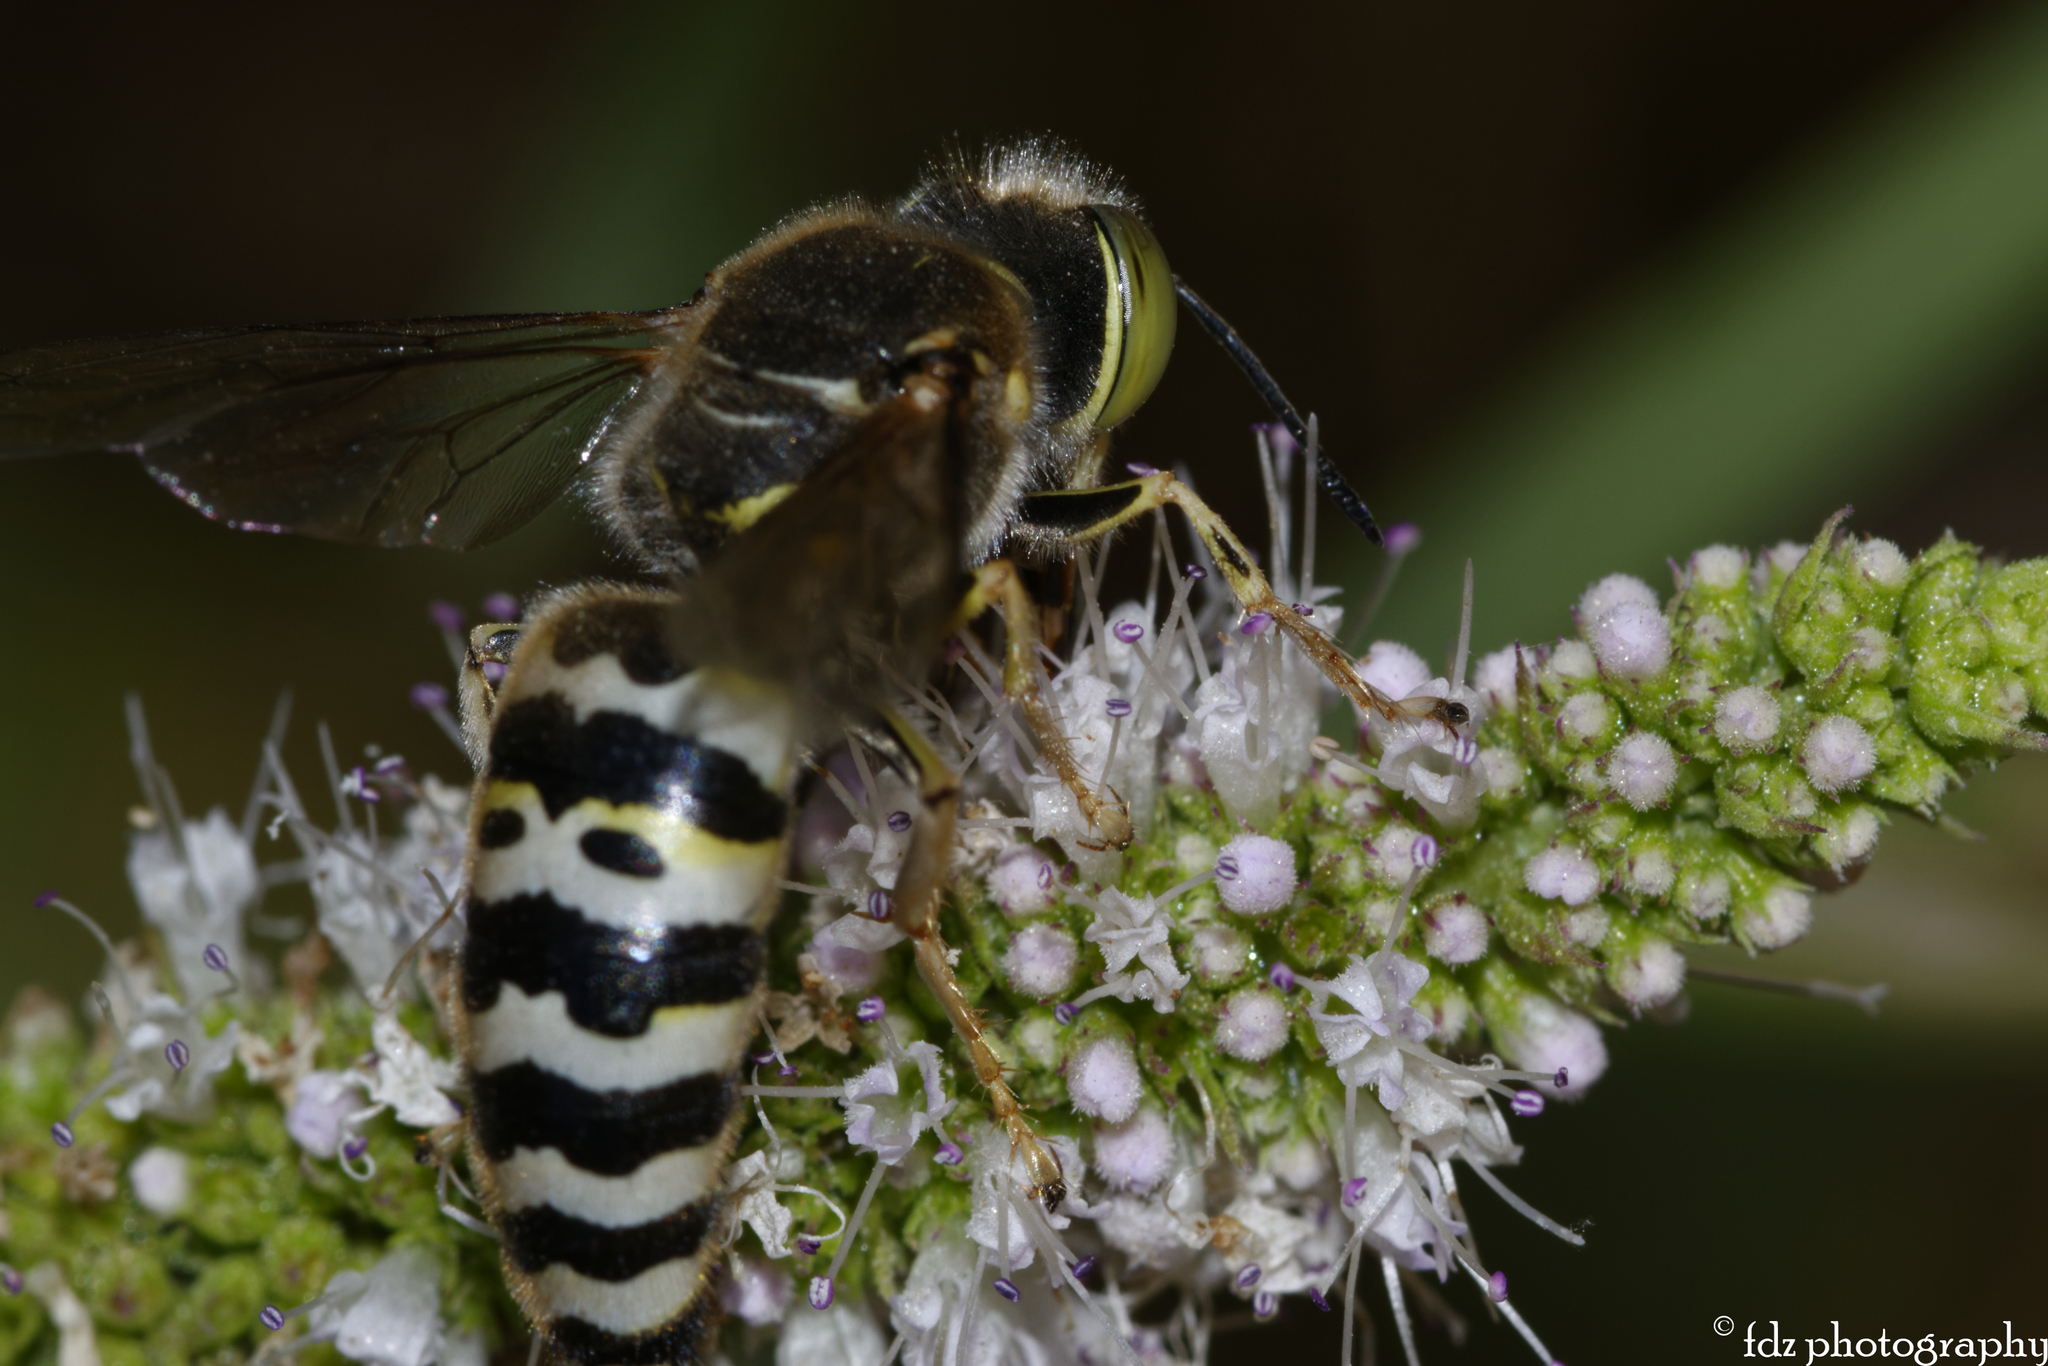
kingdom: Animalia
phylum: Arthropoda
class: Insecta
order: Hymenoptera
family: Crabronidae
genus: Bembix
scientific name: Bembix oculata
